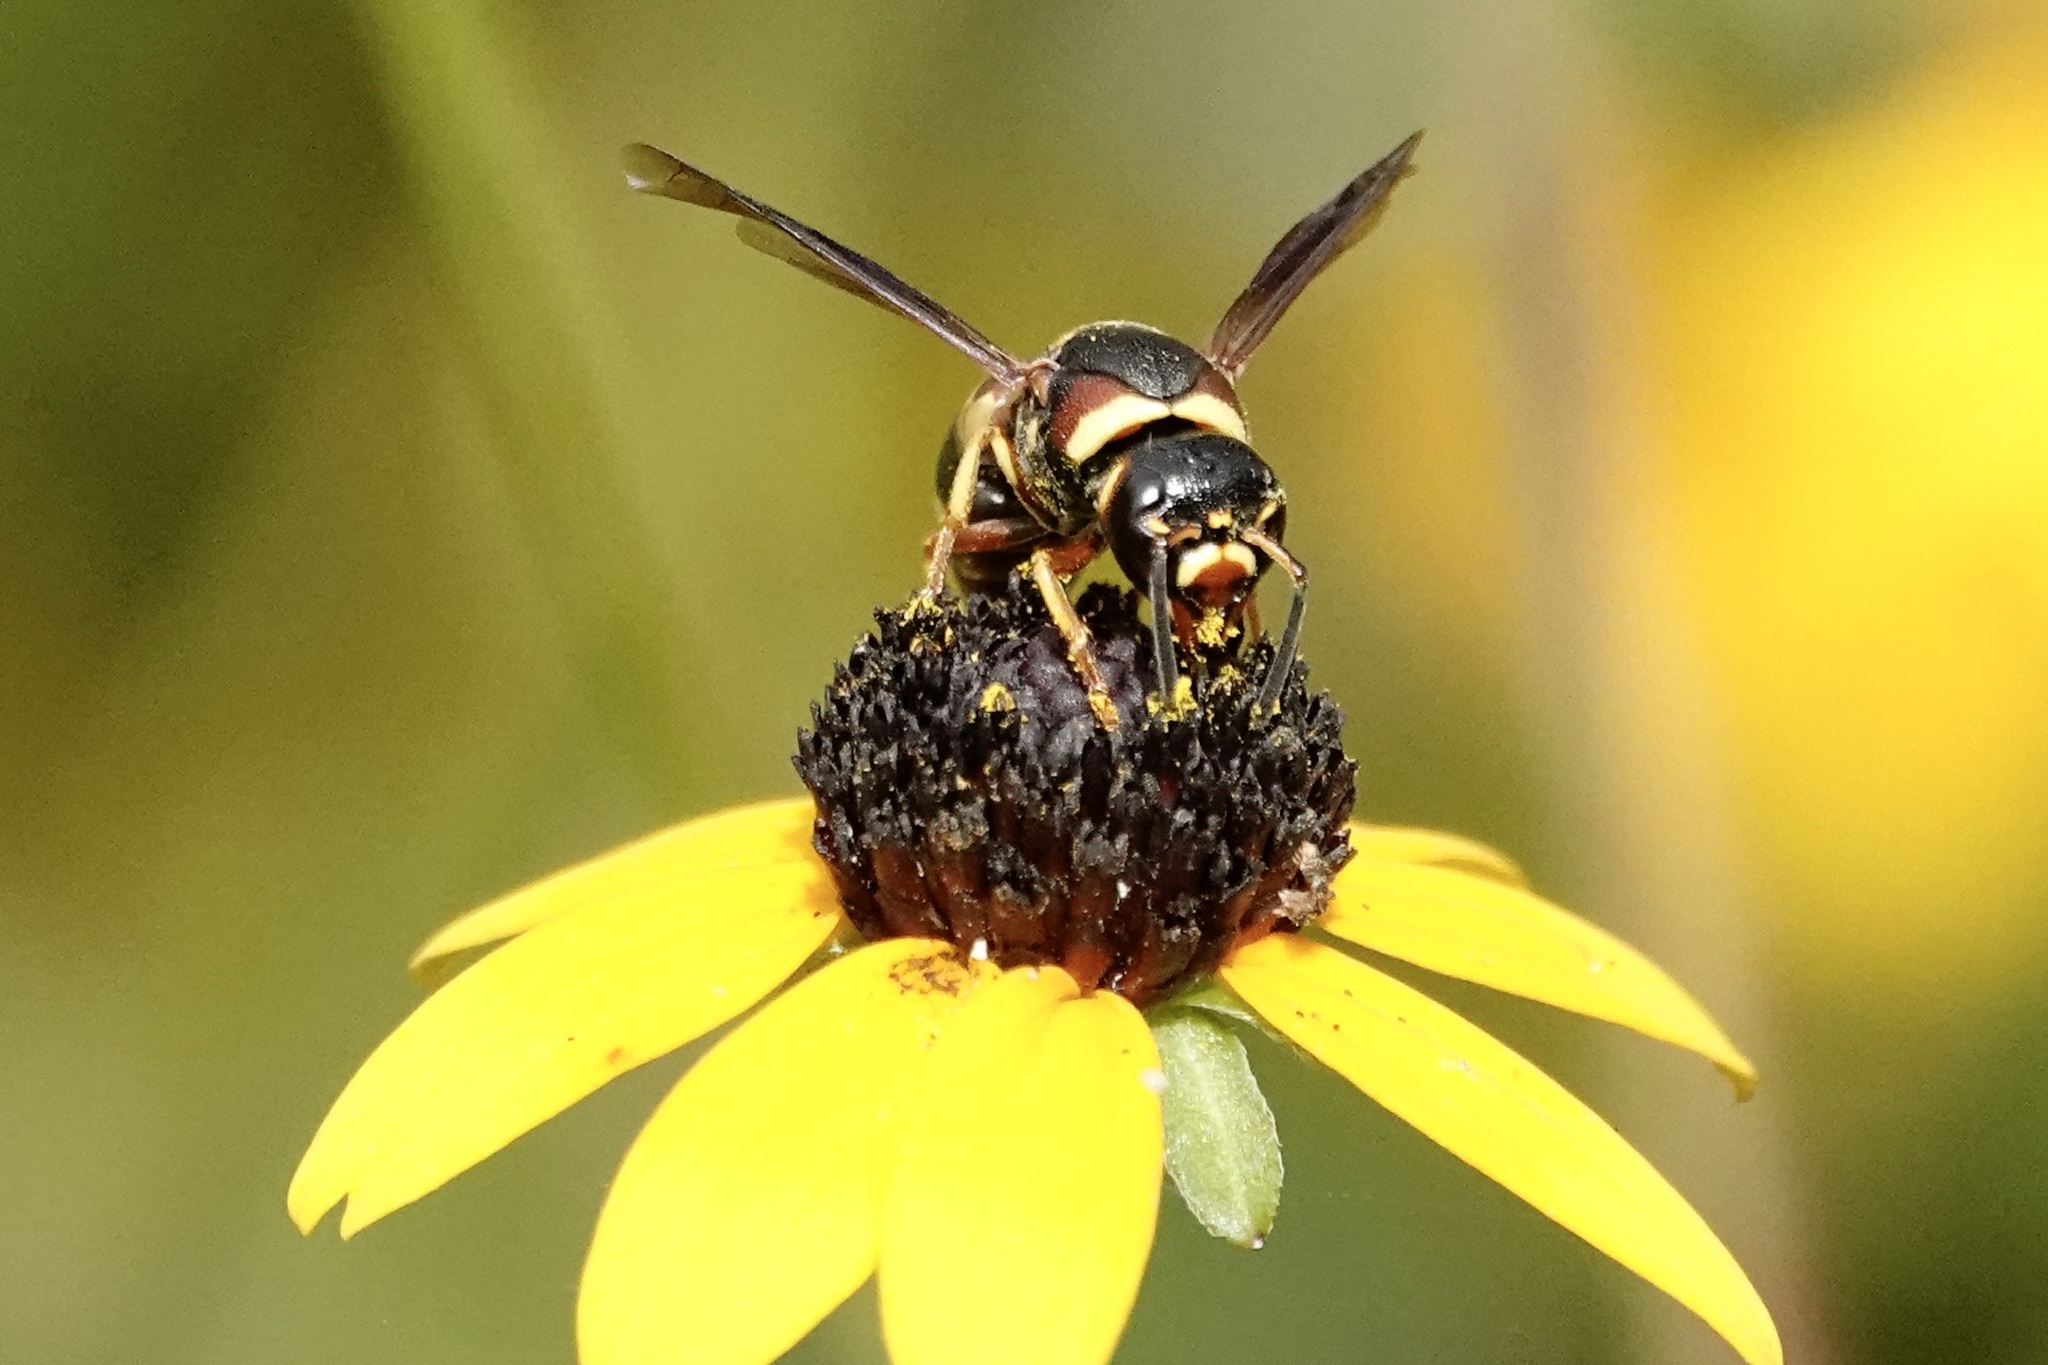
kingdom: Animalia
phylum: Arthropoda
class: Insecta
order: Hymenoptera
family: Eumenidae
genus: Euodynerus
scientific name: Euodynerus castigatus
